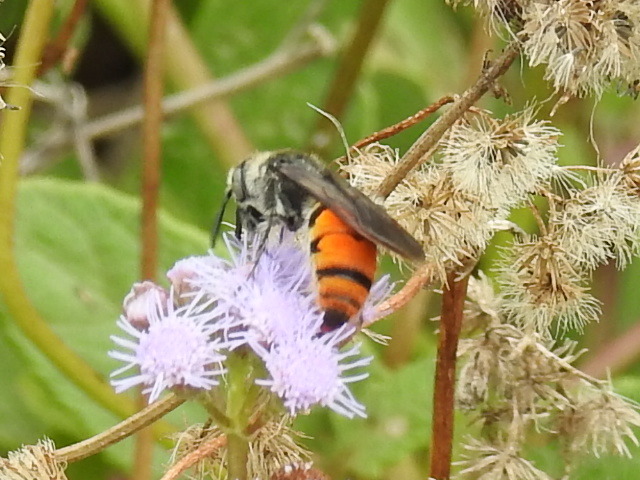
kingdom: Animalia
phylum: Arthropoda
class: Insecta
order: Hymenoptera
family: Scoliidae
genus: Dielis
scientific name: Dielis tolteca
